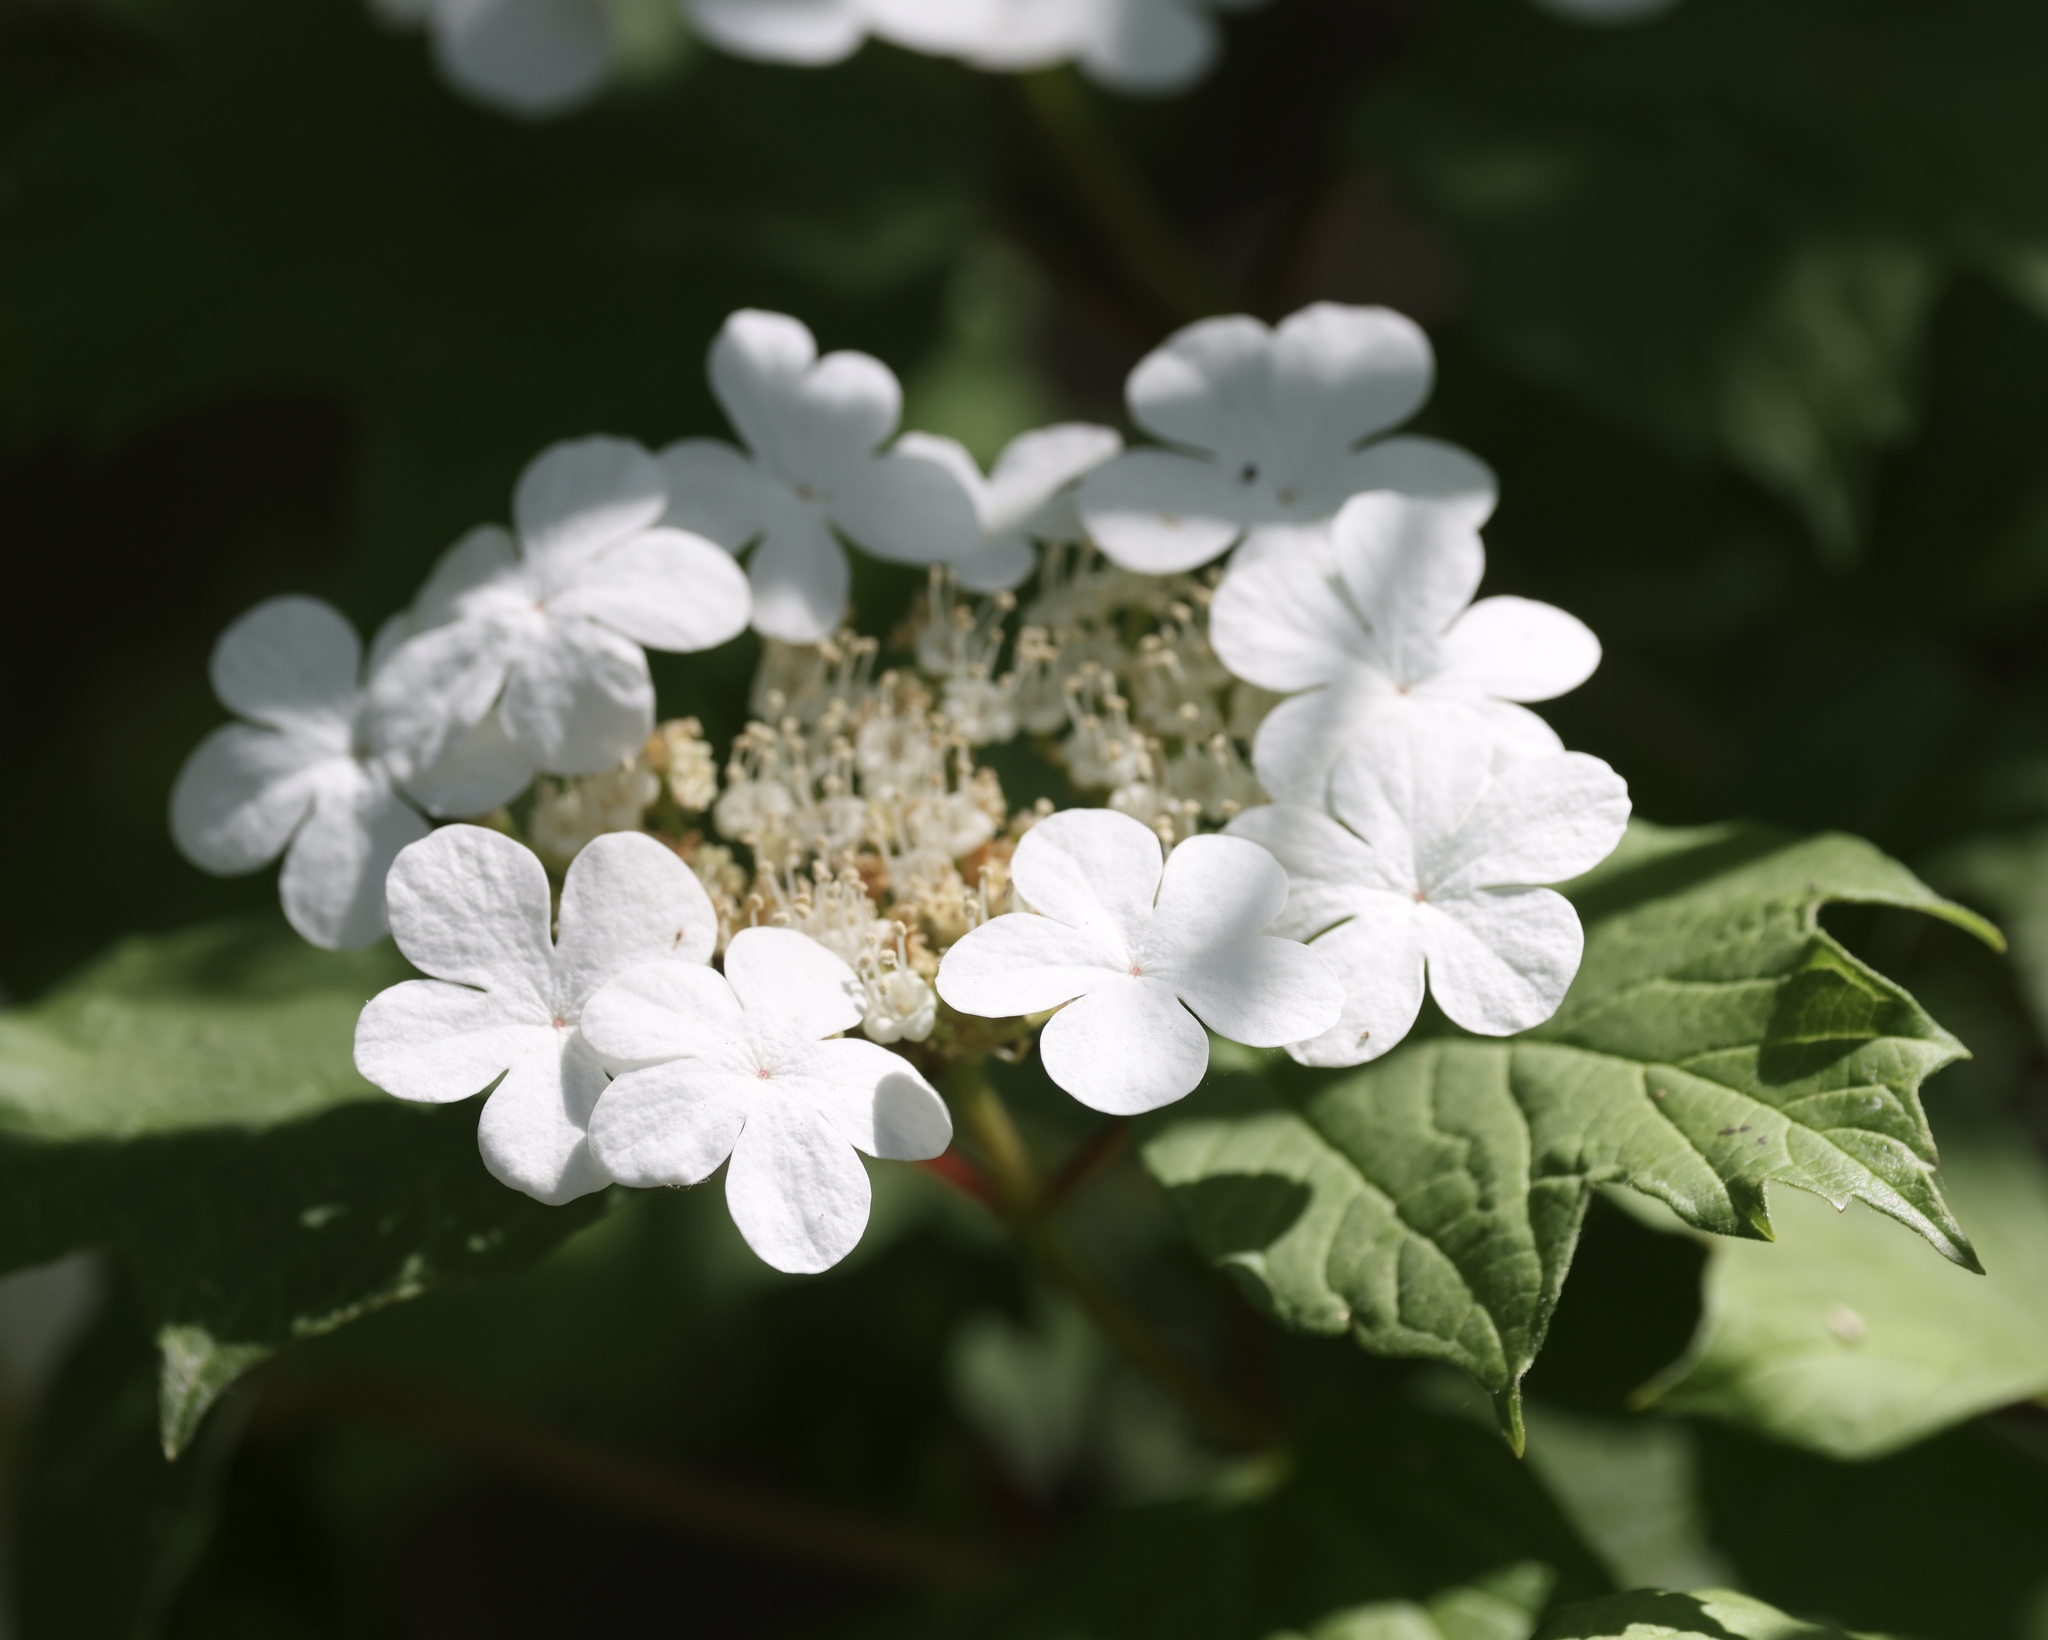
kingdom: Plantae
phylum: Tracheophyta
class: Magnoliopsida
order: Dipsacales
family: Viburnaceae
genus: Viburnum
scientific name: Viburnum opulus
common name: Guelder-rose
